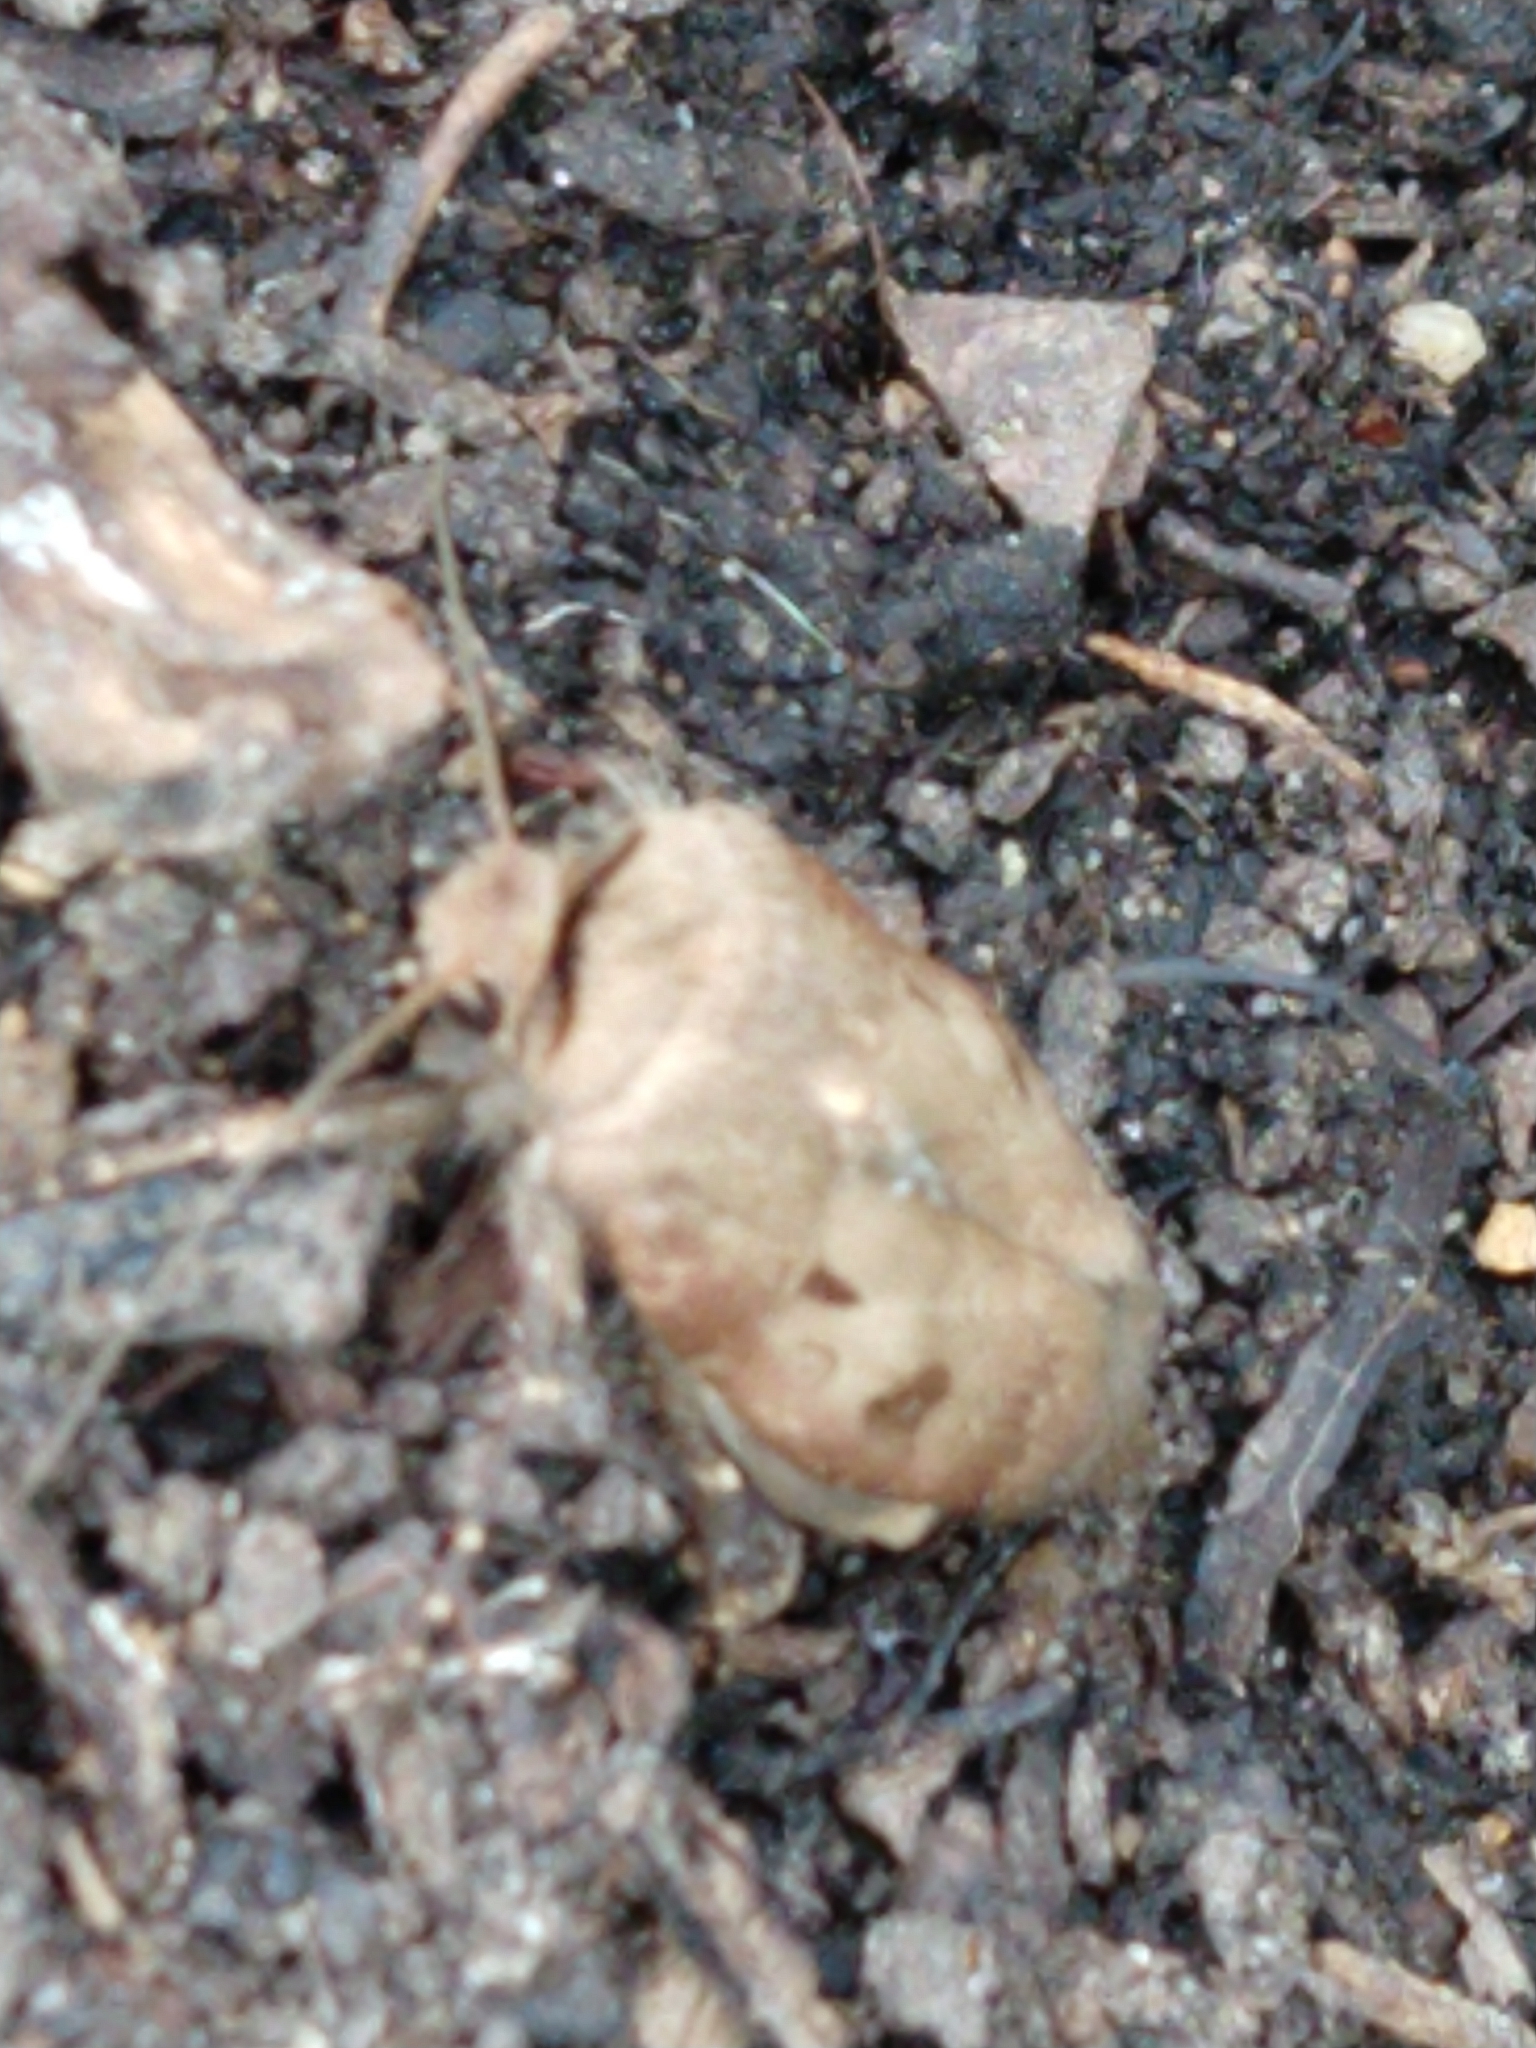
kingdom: Animalia
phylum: Arthropoda
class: Insecta
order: Lepidoptera
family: Noctuidae
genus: Agrotis
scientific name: Agrotis exclamationis
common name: Heart and dart
